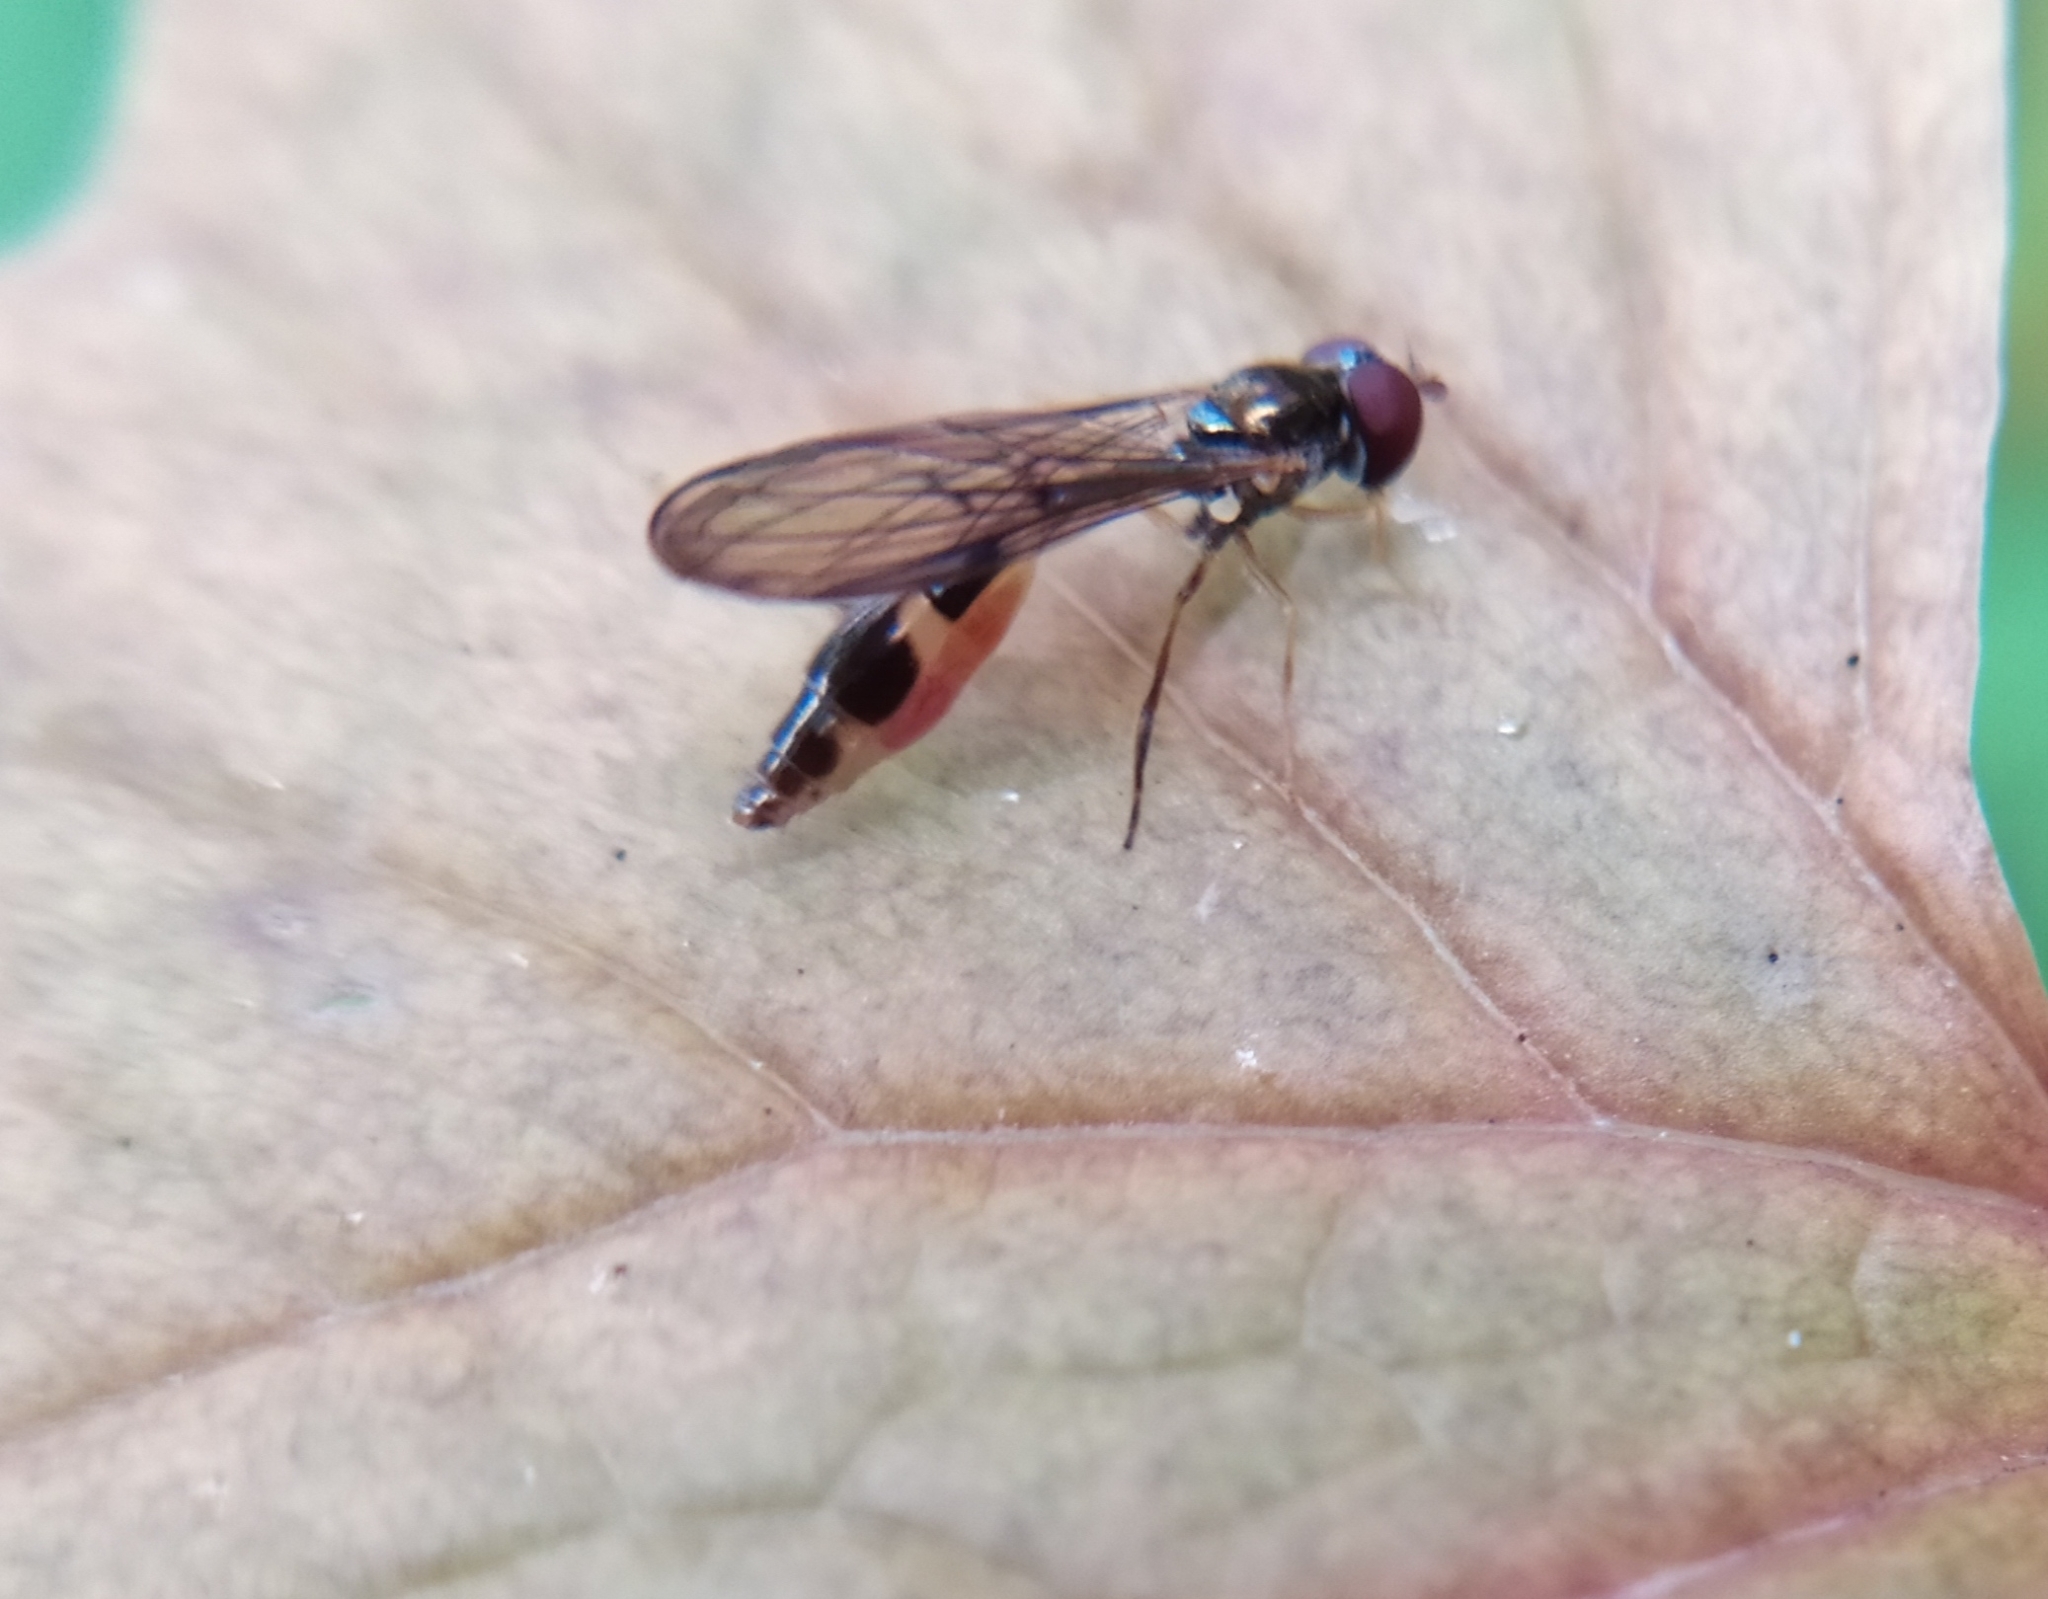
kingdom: Animalia
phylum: Arthropoda
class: Insecta
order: Diptera
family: Syrphidae
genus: Baccha
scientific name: Baccha elongata
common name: Common dainty
